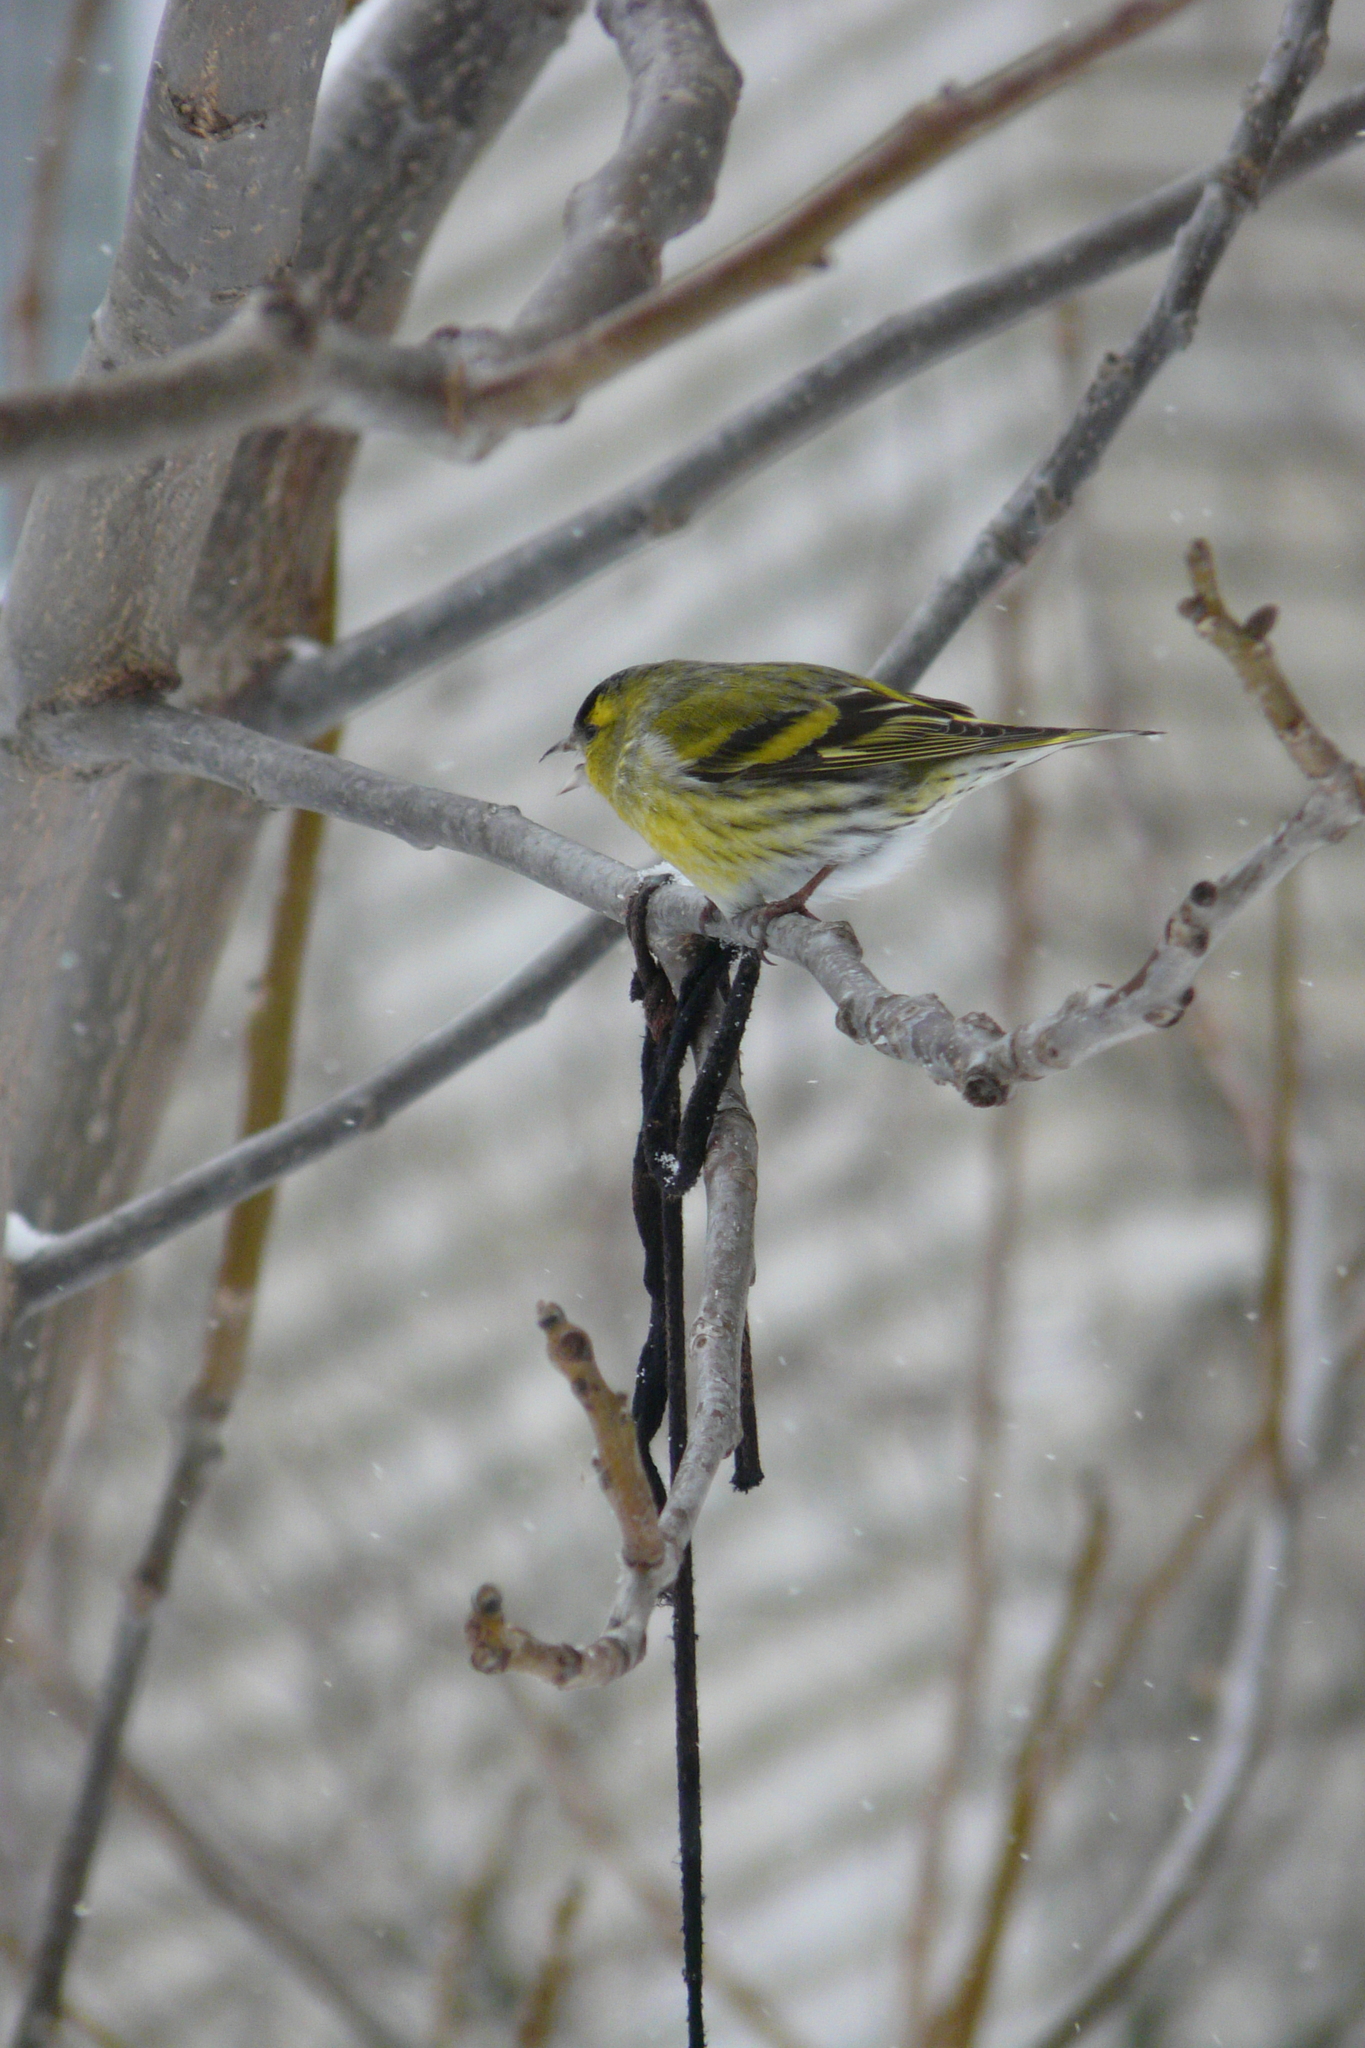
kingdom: Animalia
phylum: Chordata
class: Aves
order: Passeriformes
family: Fringillidae
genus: Spinus
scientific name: Spinus spinus
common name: Eurasian siskin
